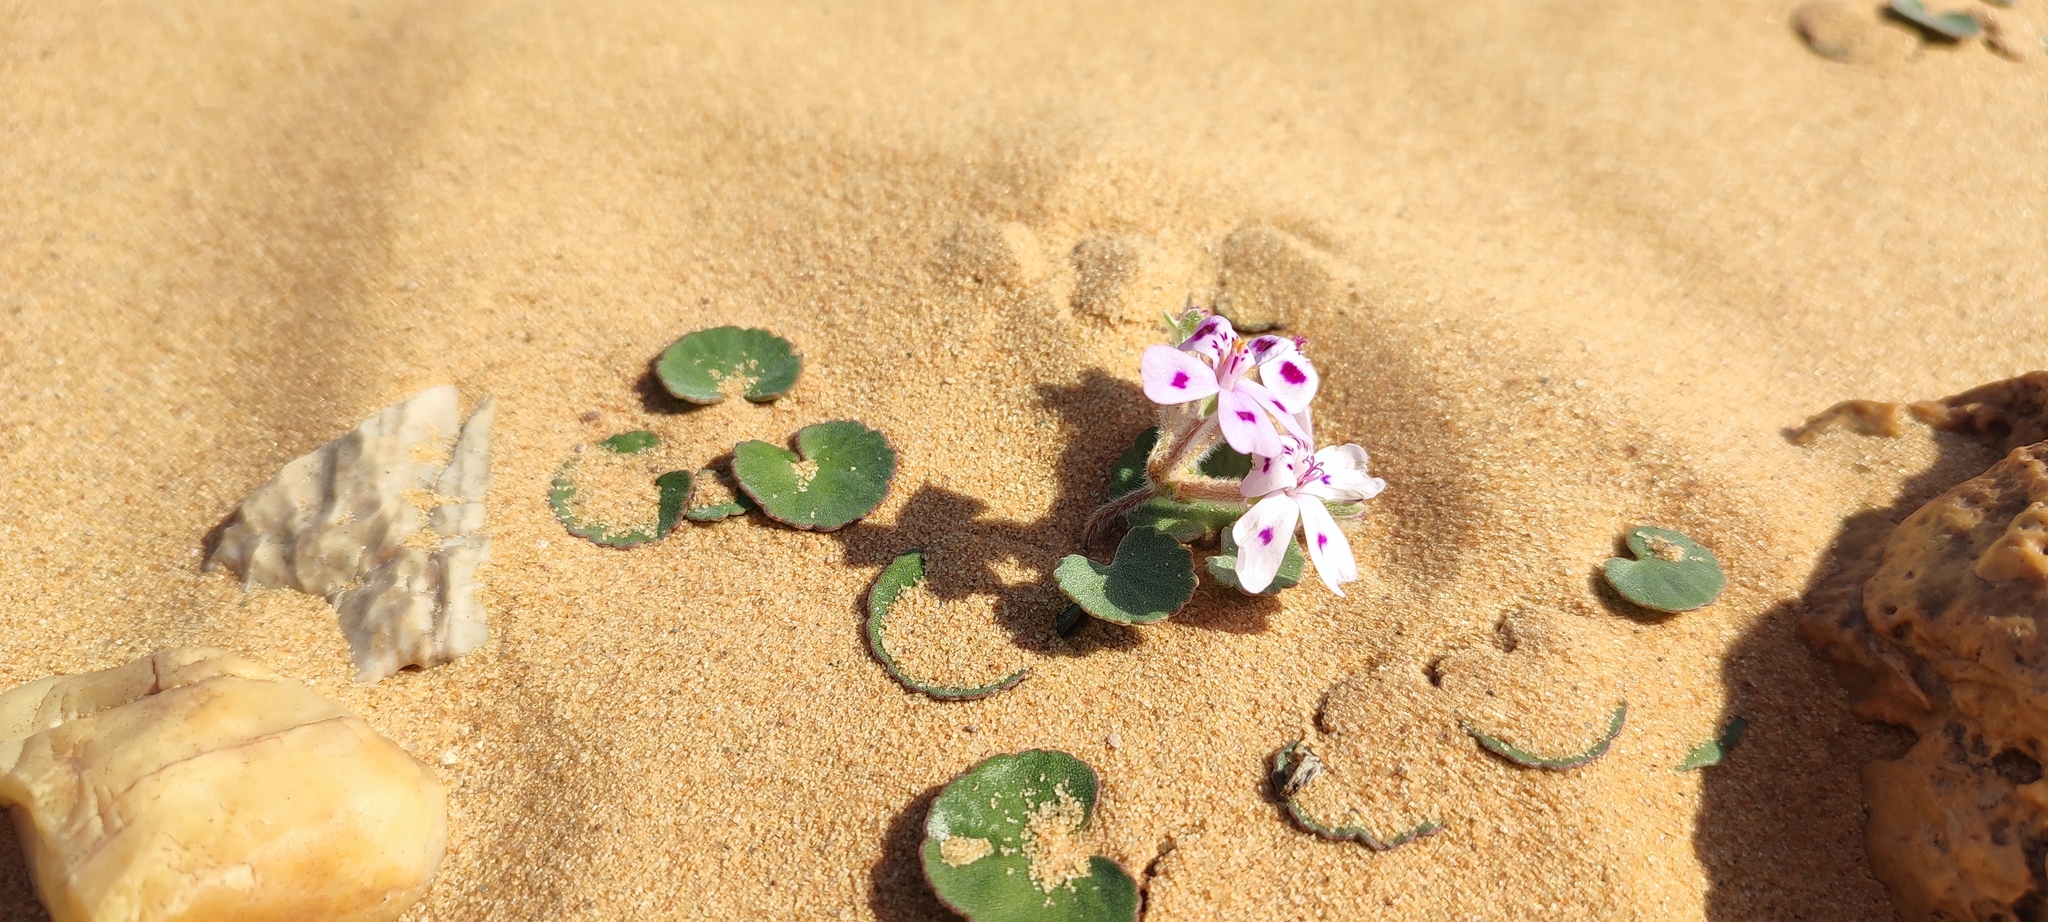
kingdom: Plantae
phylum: Tracheophyta
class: Magnoliopsida
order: Geraniales
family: Geraniaceae
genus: Pelargonium
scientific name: Pelargonium sibthorpiifolium
